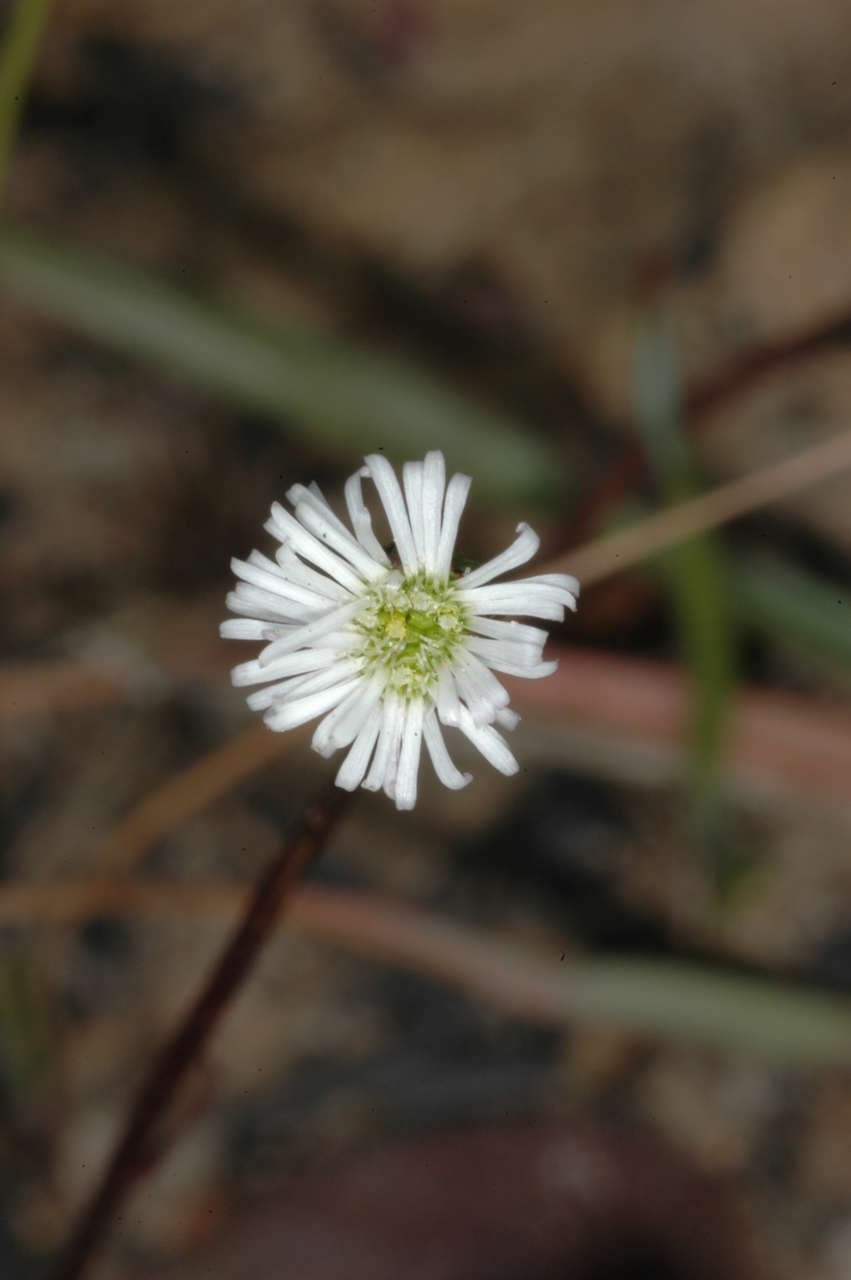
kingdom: Plantae
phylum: Tracheophyta
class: Magnoliopsida
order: Asterales
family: Asteraceae
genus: Lagenophora
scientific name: Lagenophora sublyrata ter
